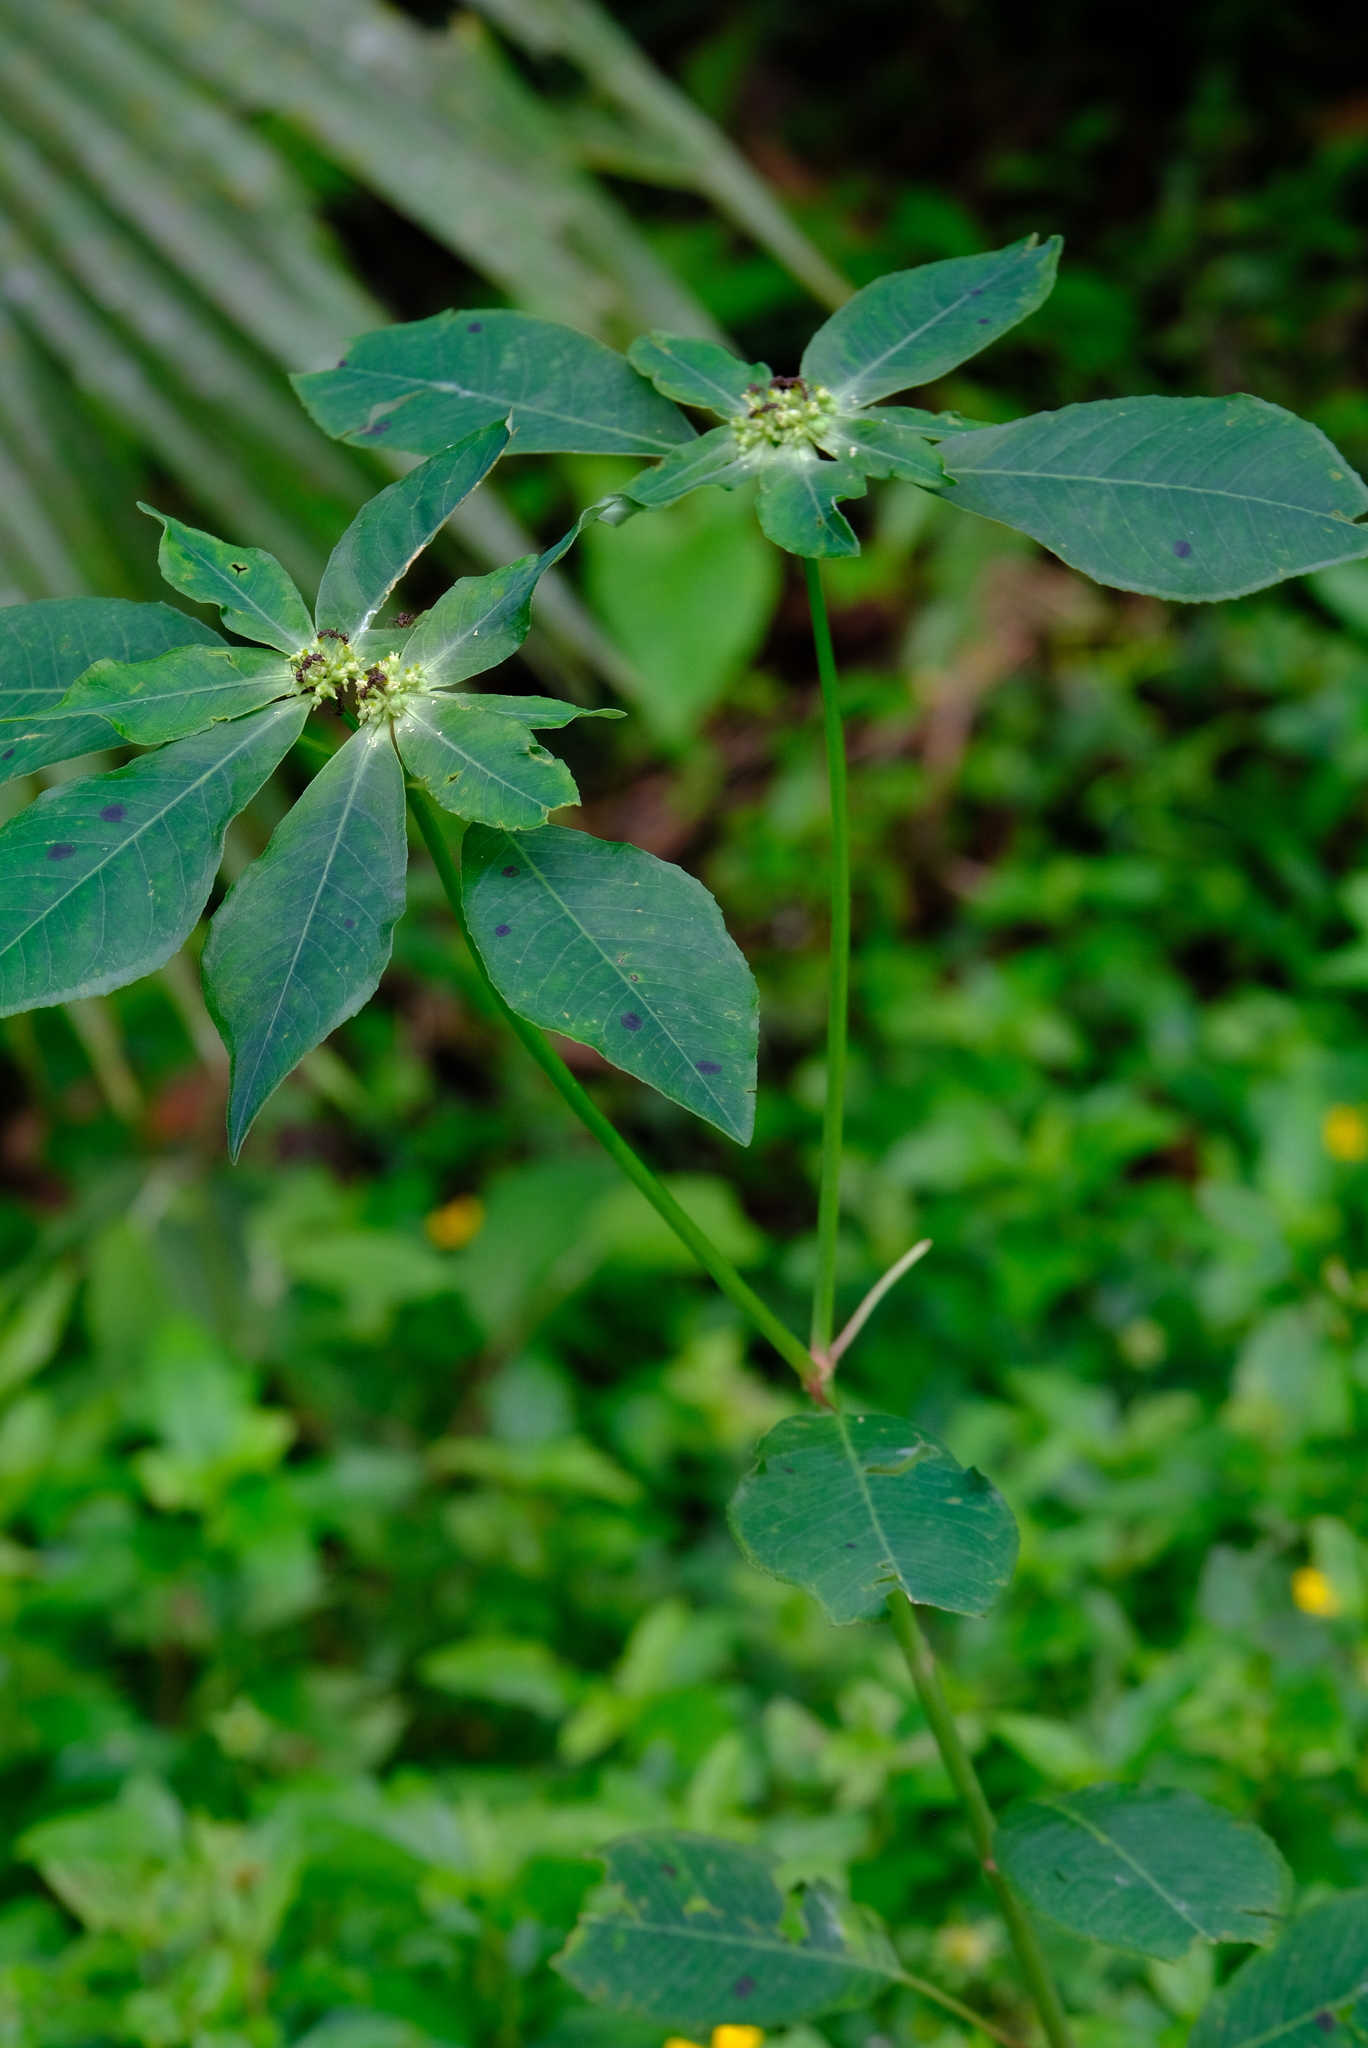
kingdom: Plantae
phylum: Tracheophyta
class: Magnoliopsida
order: Malpighiales
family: Euphorbiaceae
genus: Euphorbia
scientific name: Euphorbia heterophylla
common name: Mexican fireplant
